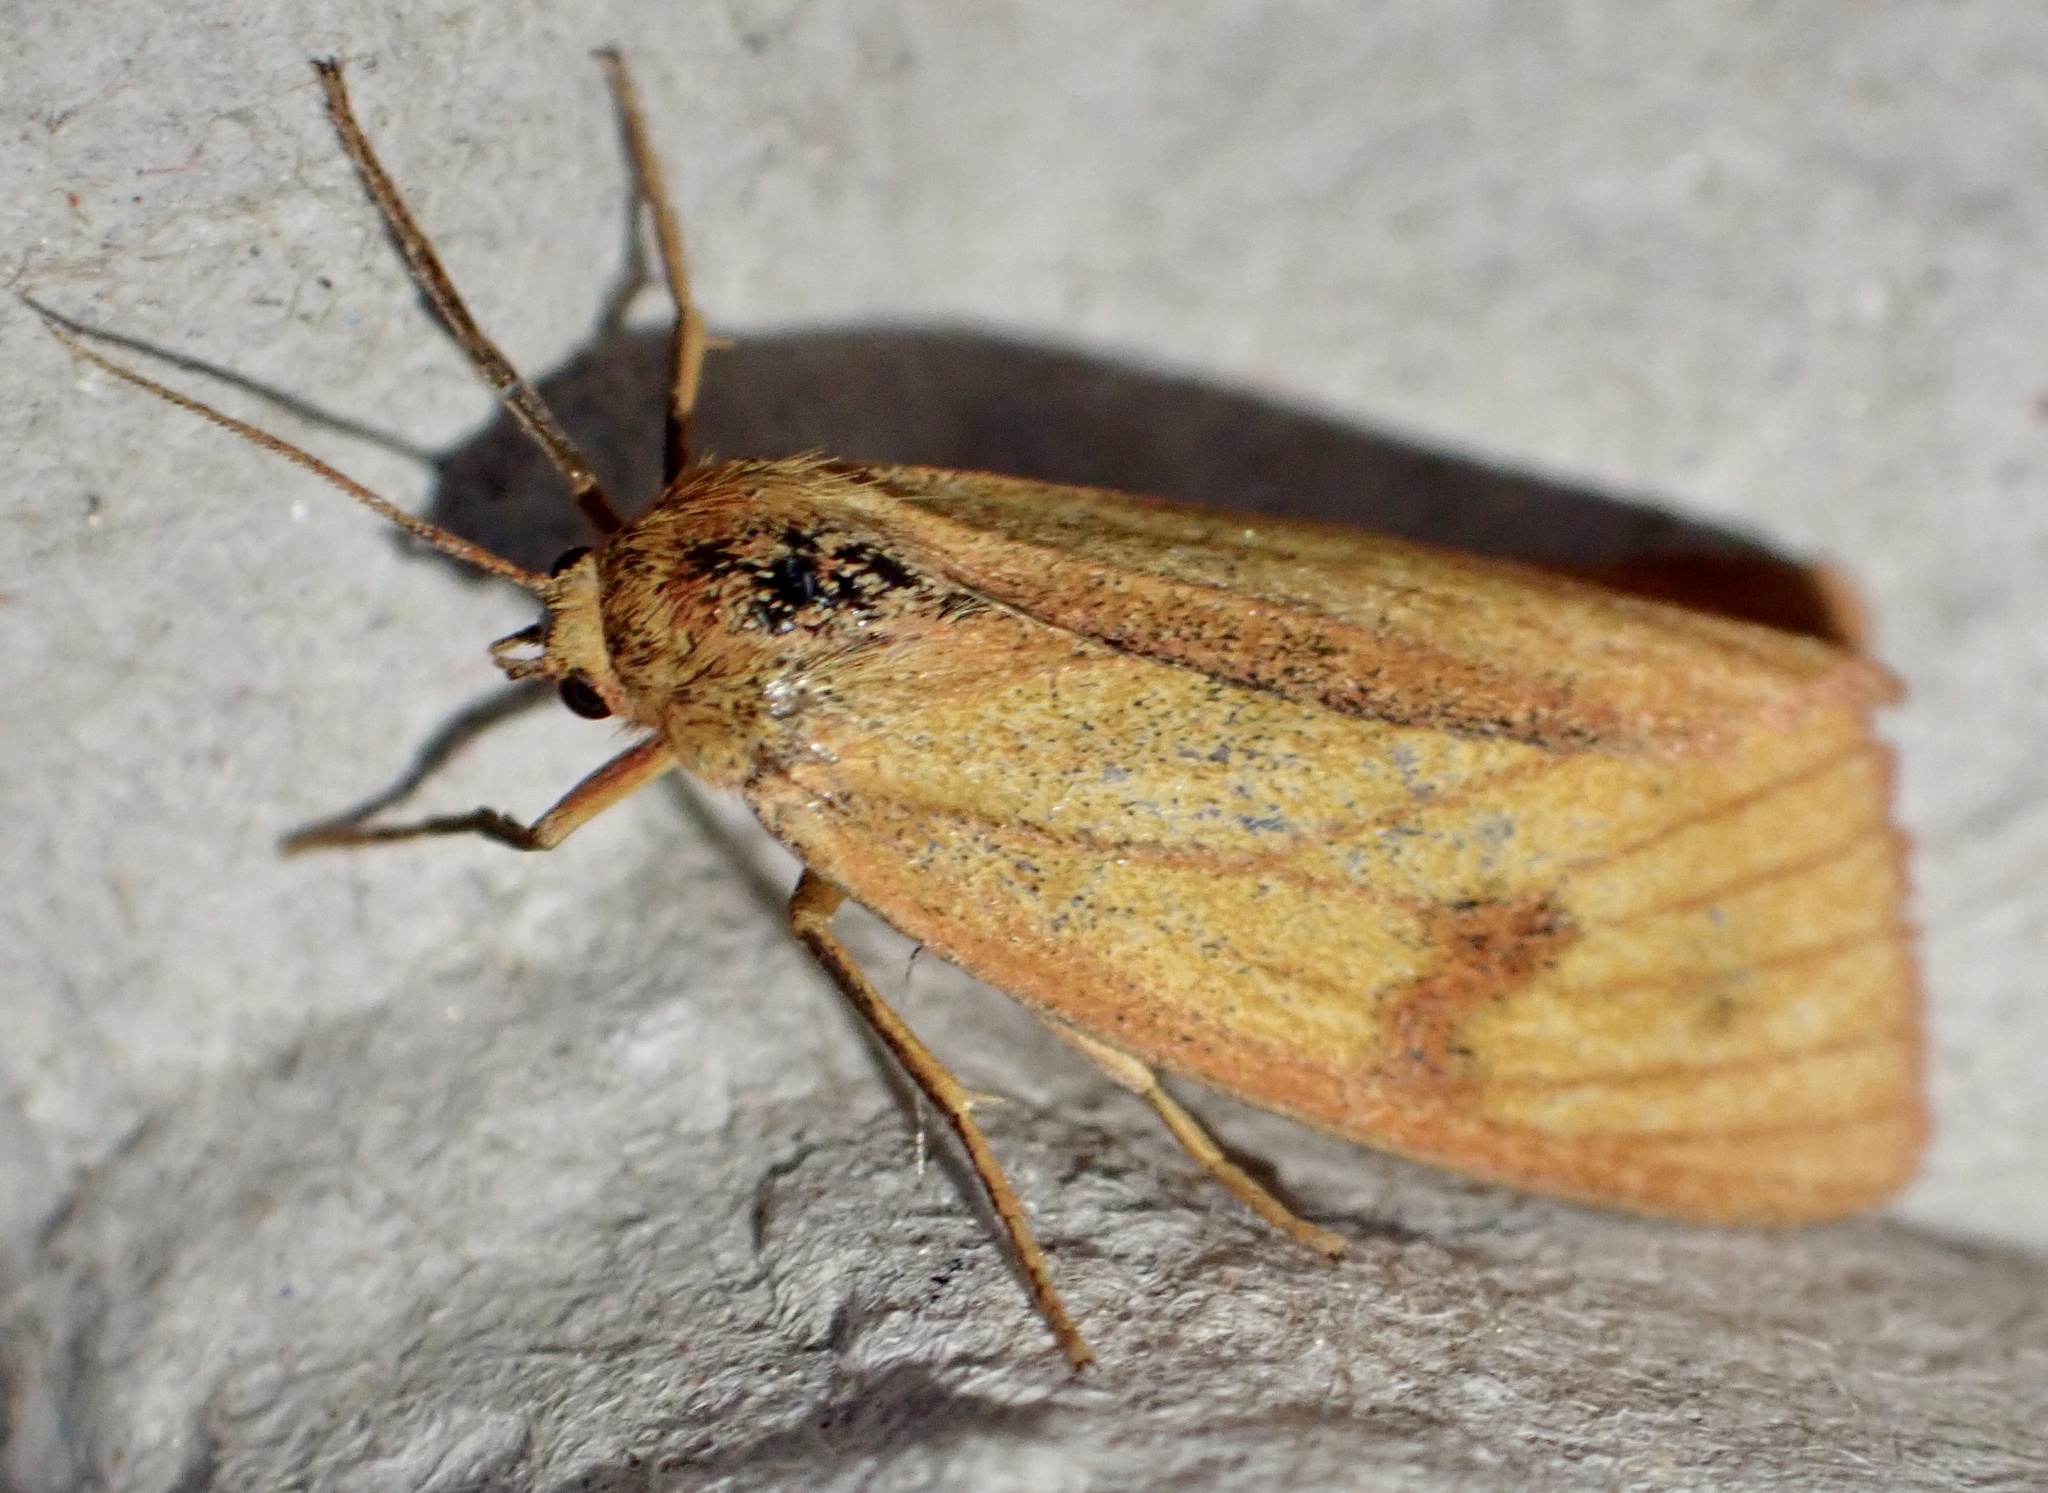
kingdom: Animalia
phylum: Arthropoda
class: Insecta
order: Lepidoptera
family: Erebidae
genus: Diacrisia
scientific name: Diacrisia sannio
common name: Clouded buff
